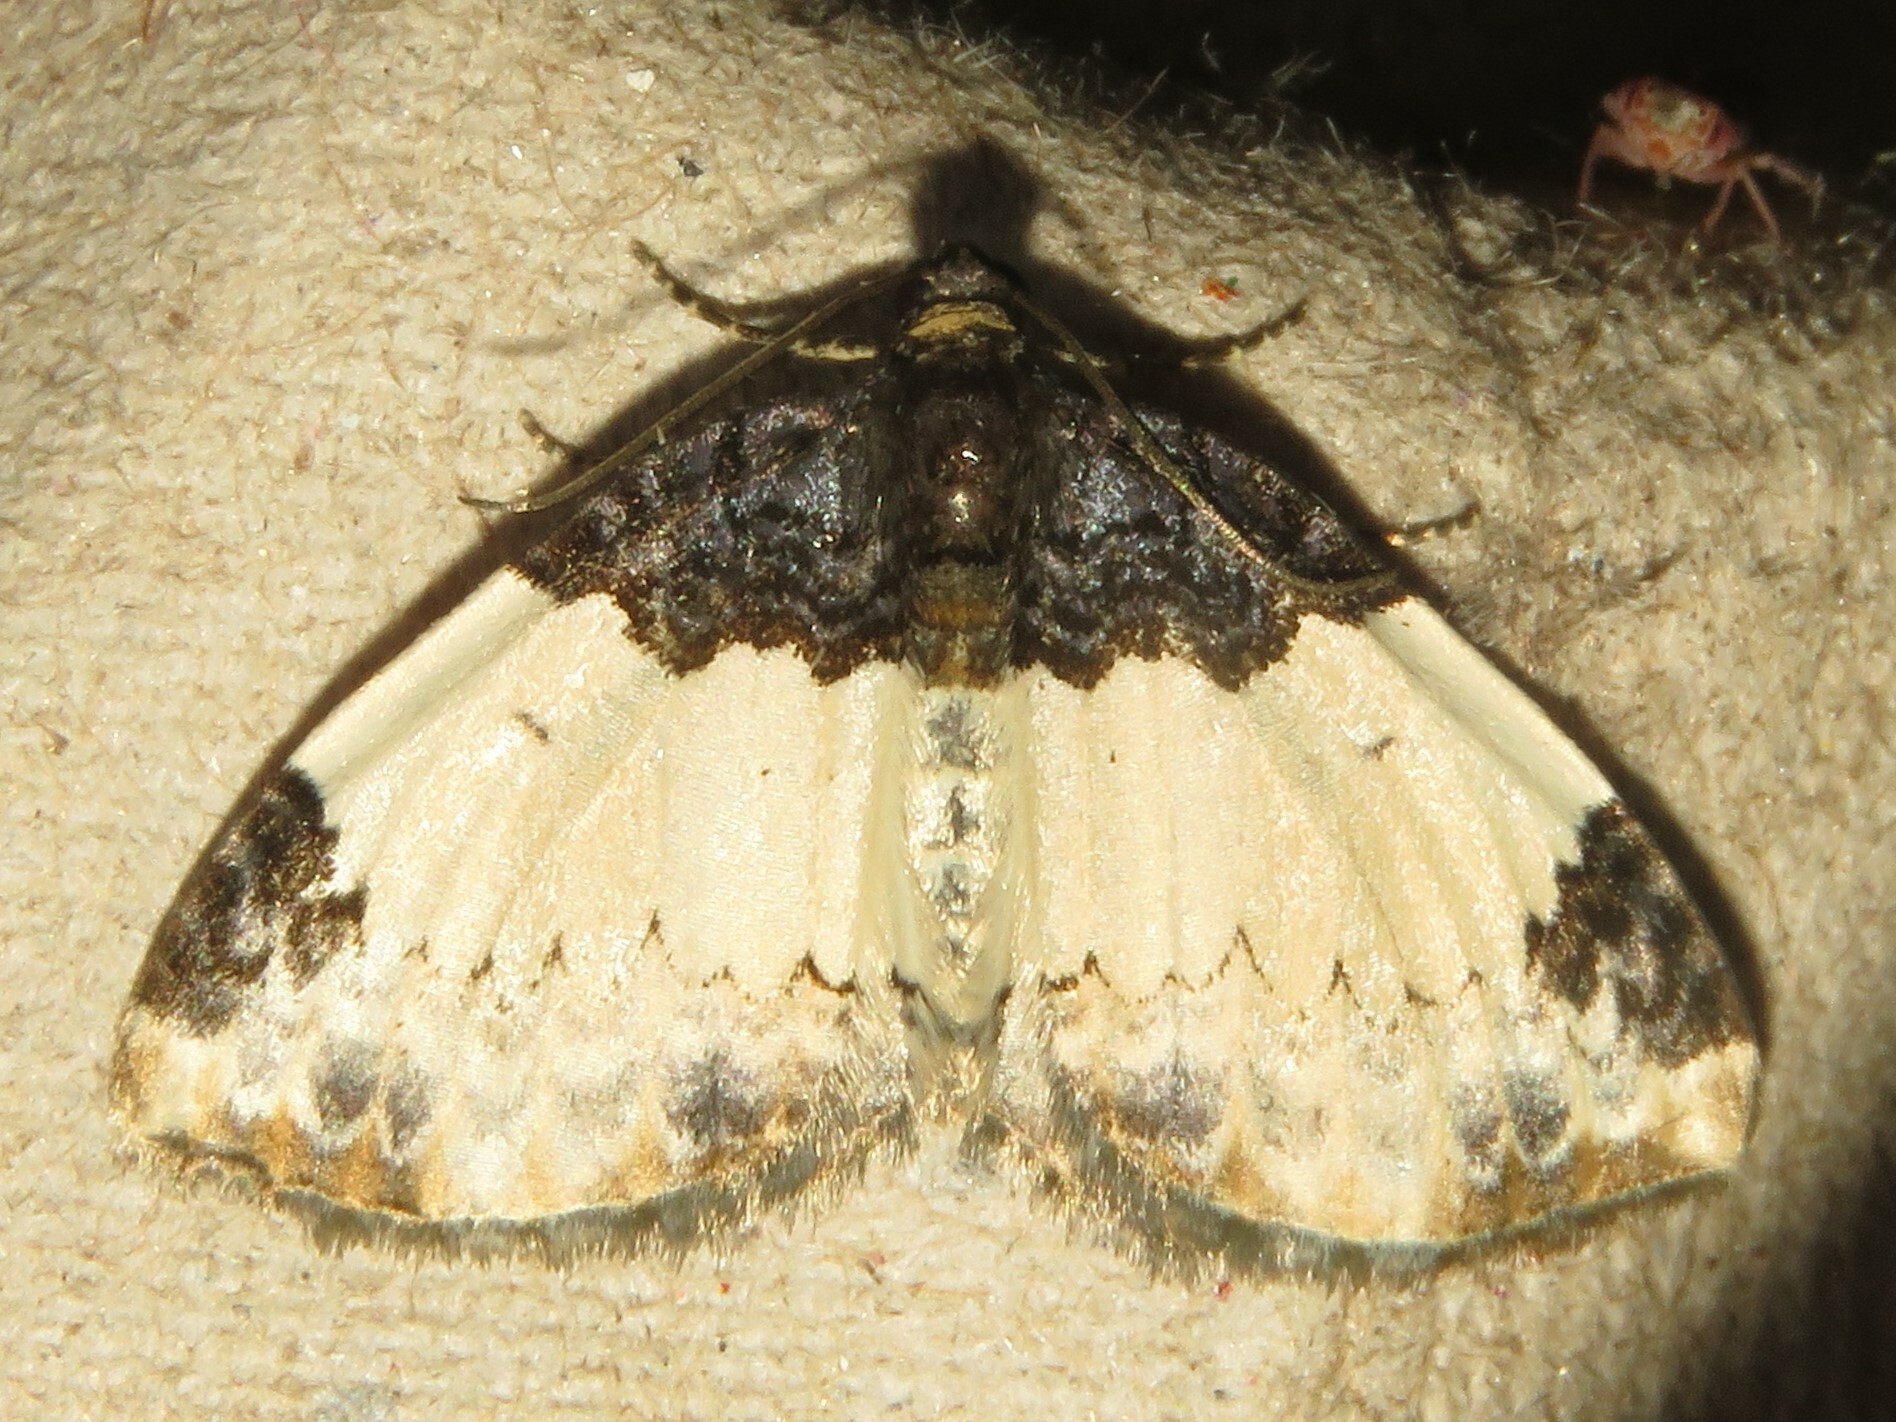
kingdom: Animalia
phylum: Arthropoda
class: Insecta
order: Lepidoptera
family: Geometridae
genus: Mesoleuca
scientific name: Mesoleuca ruficillata
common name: White-ribboned carpet moth
